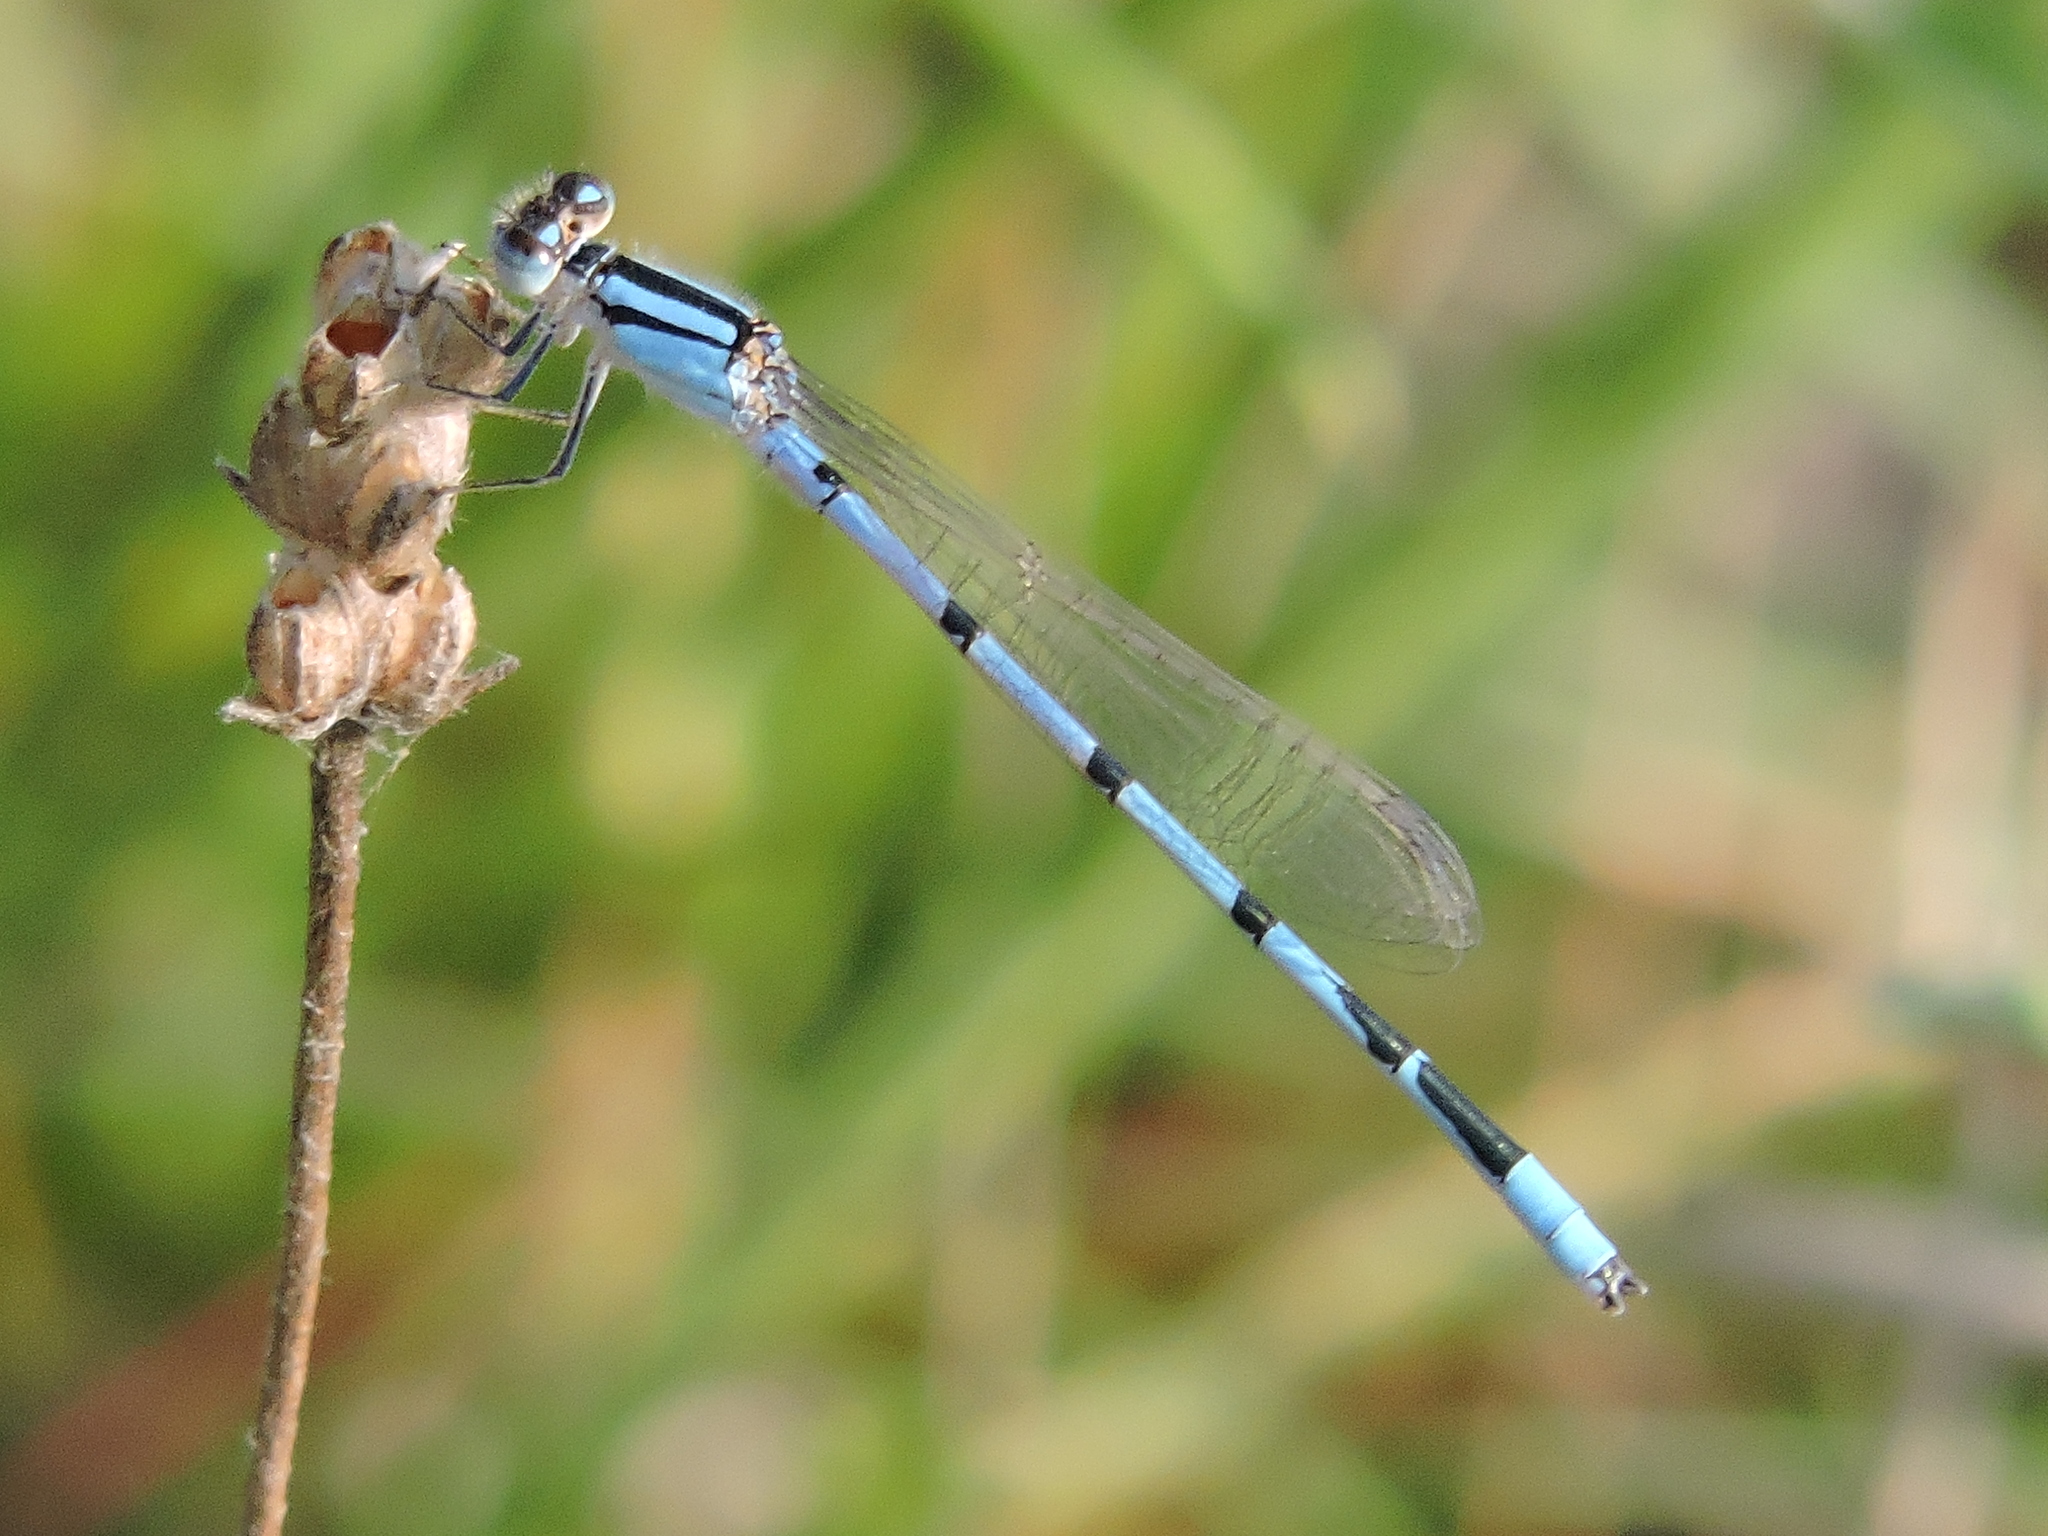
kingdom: Animalia
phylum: Arthropoda
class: Insecta
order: Odonata
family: Coenagrionidae
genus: Enallagma
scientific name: Enallagma civile
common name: Damselfly
